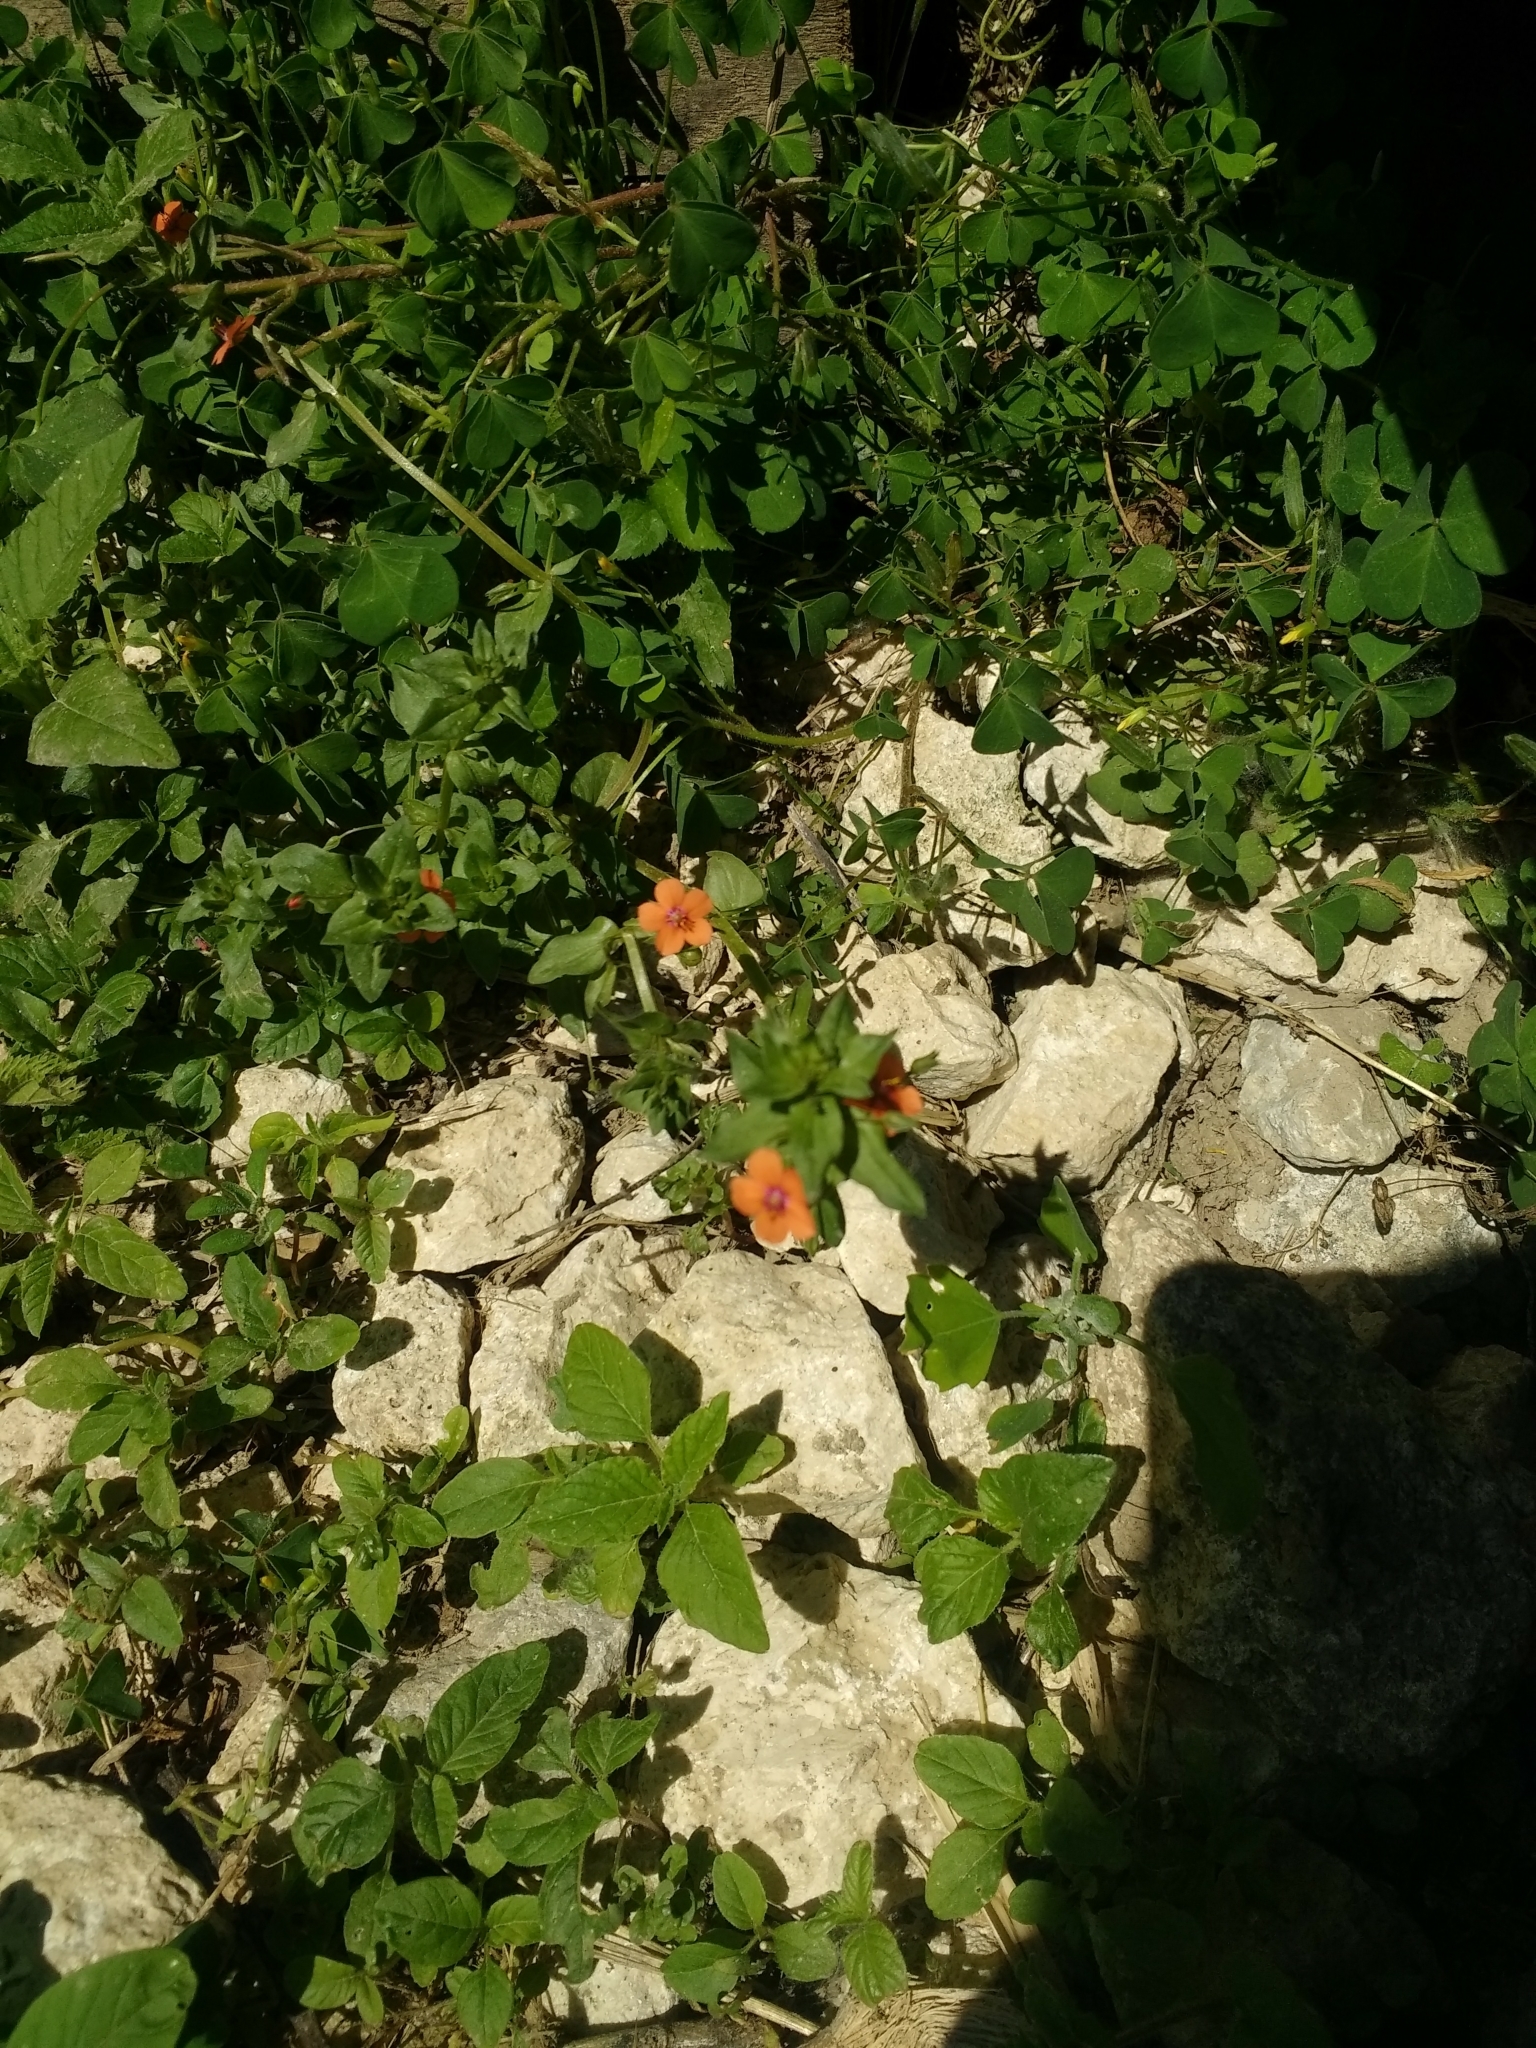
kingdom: Plantae
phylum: Tracheophyta
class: Magnoliopsida
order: Ericales
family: Primulaceae
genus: Lysimachia
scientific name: Lysimachia arvensis
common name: Scarlet pimpernel
